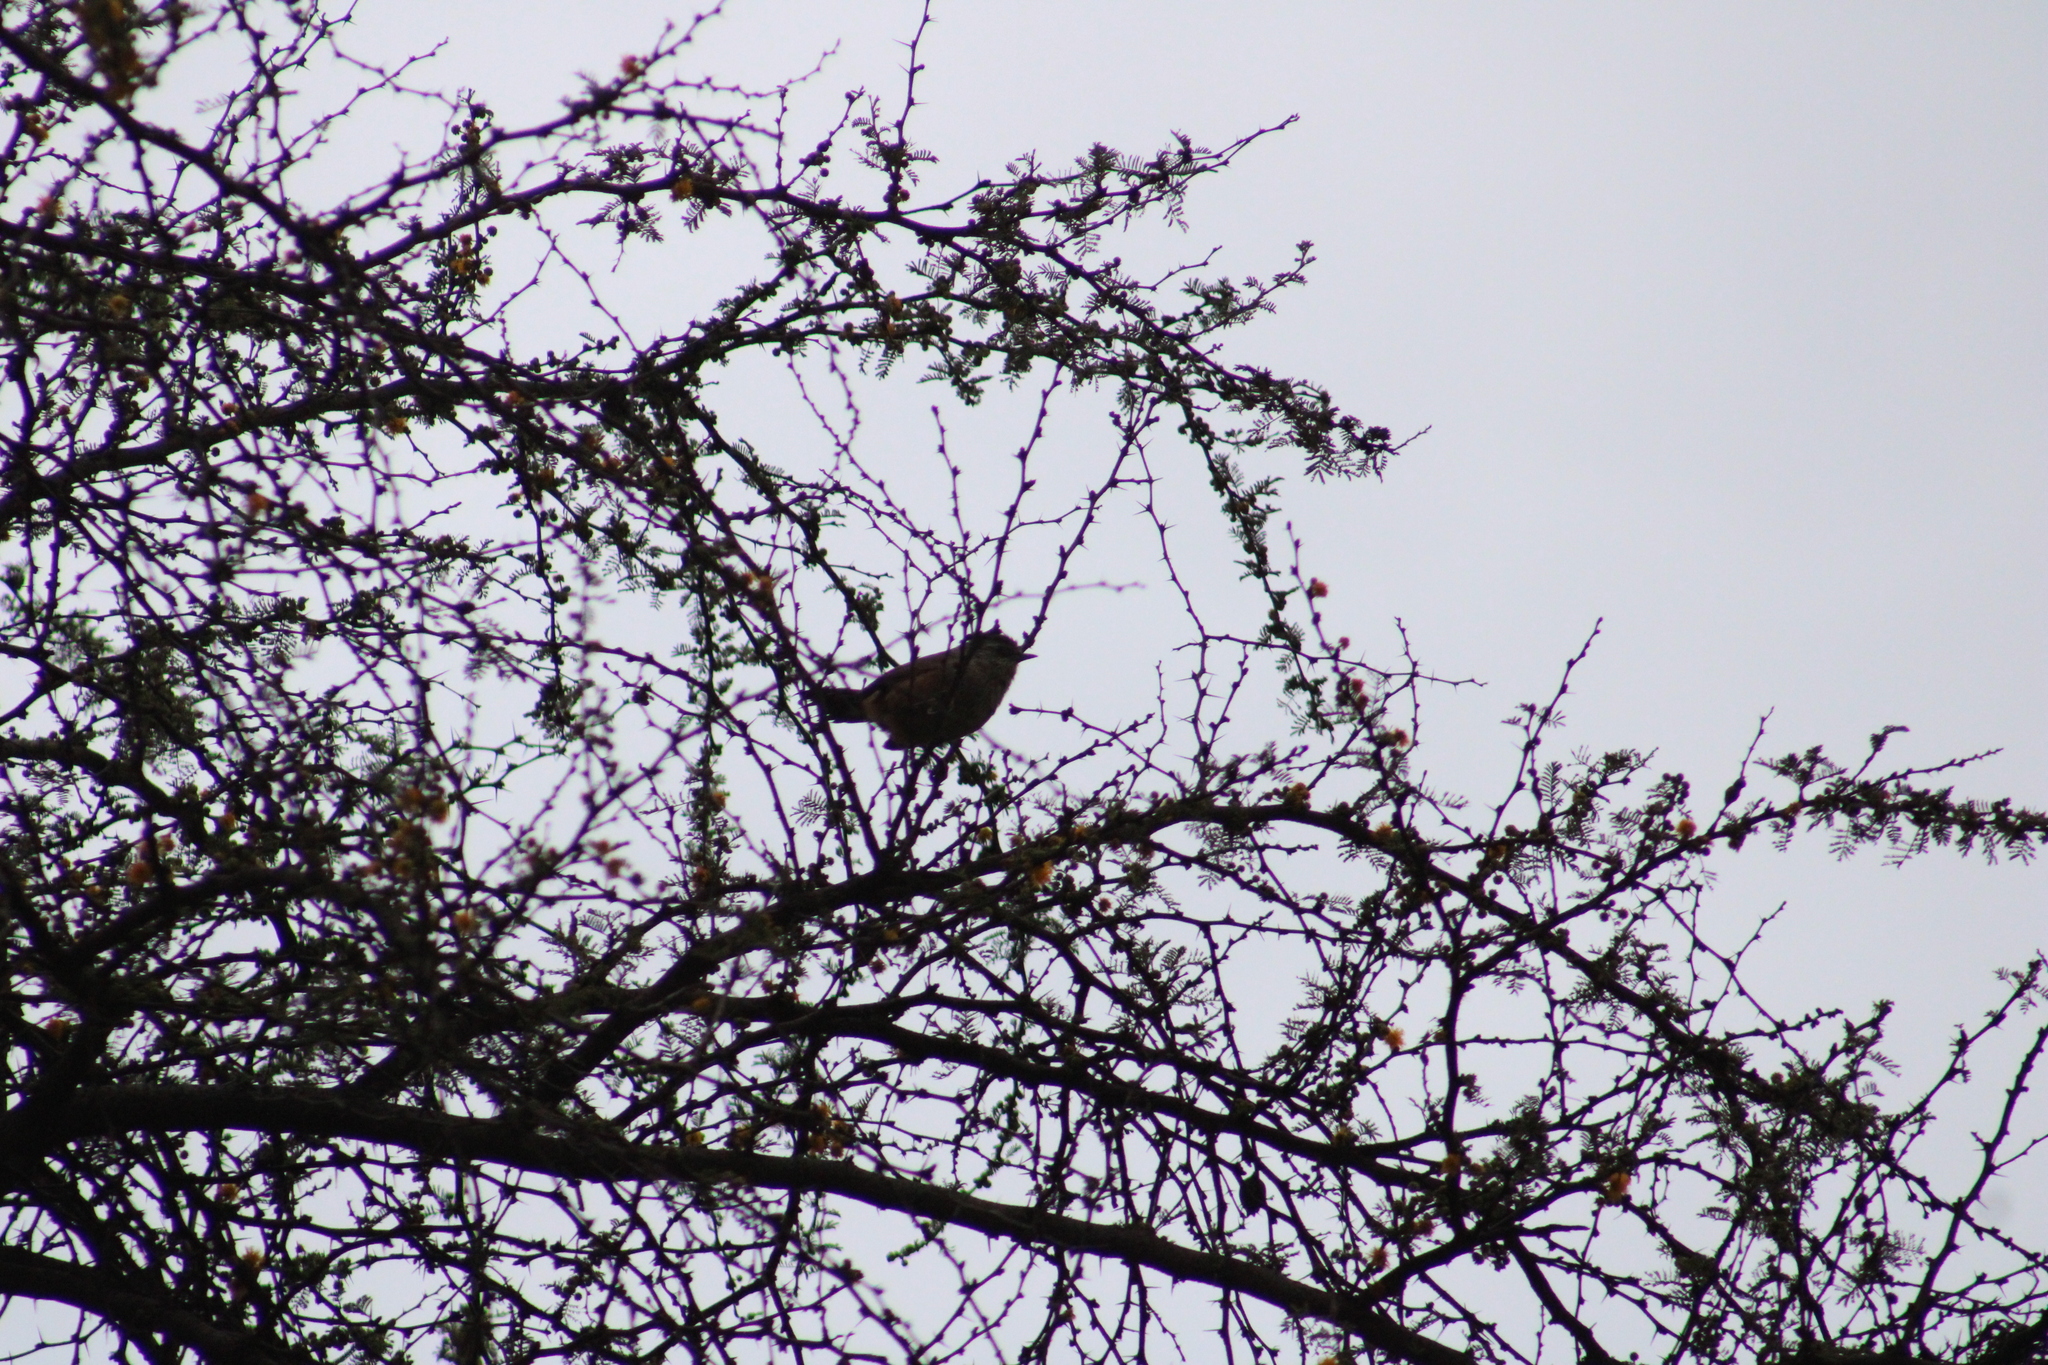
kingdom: Animalia
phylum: Chordata
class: Aves
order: Passeriformes
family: Furnariidae
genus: Asthenes
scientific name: Asthenes humicola
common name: Dusky-tailed canastero
